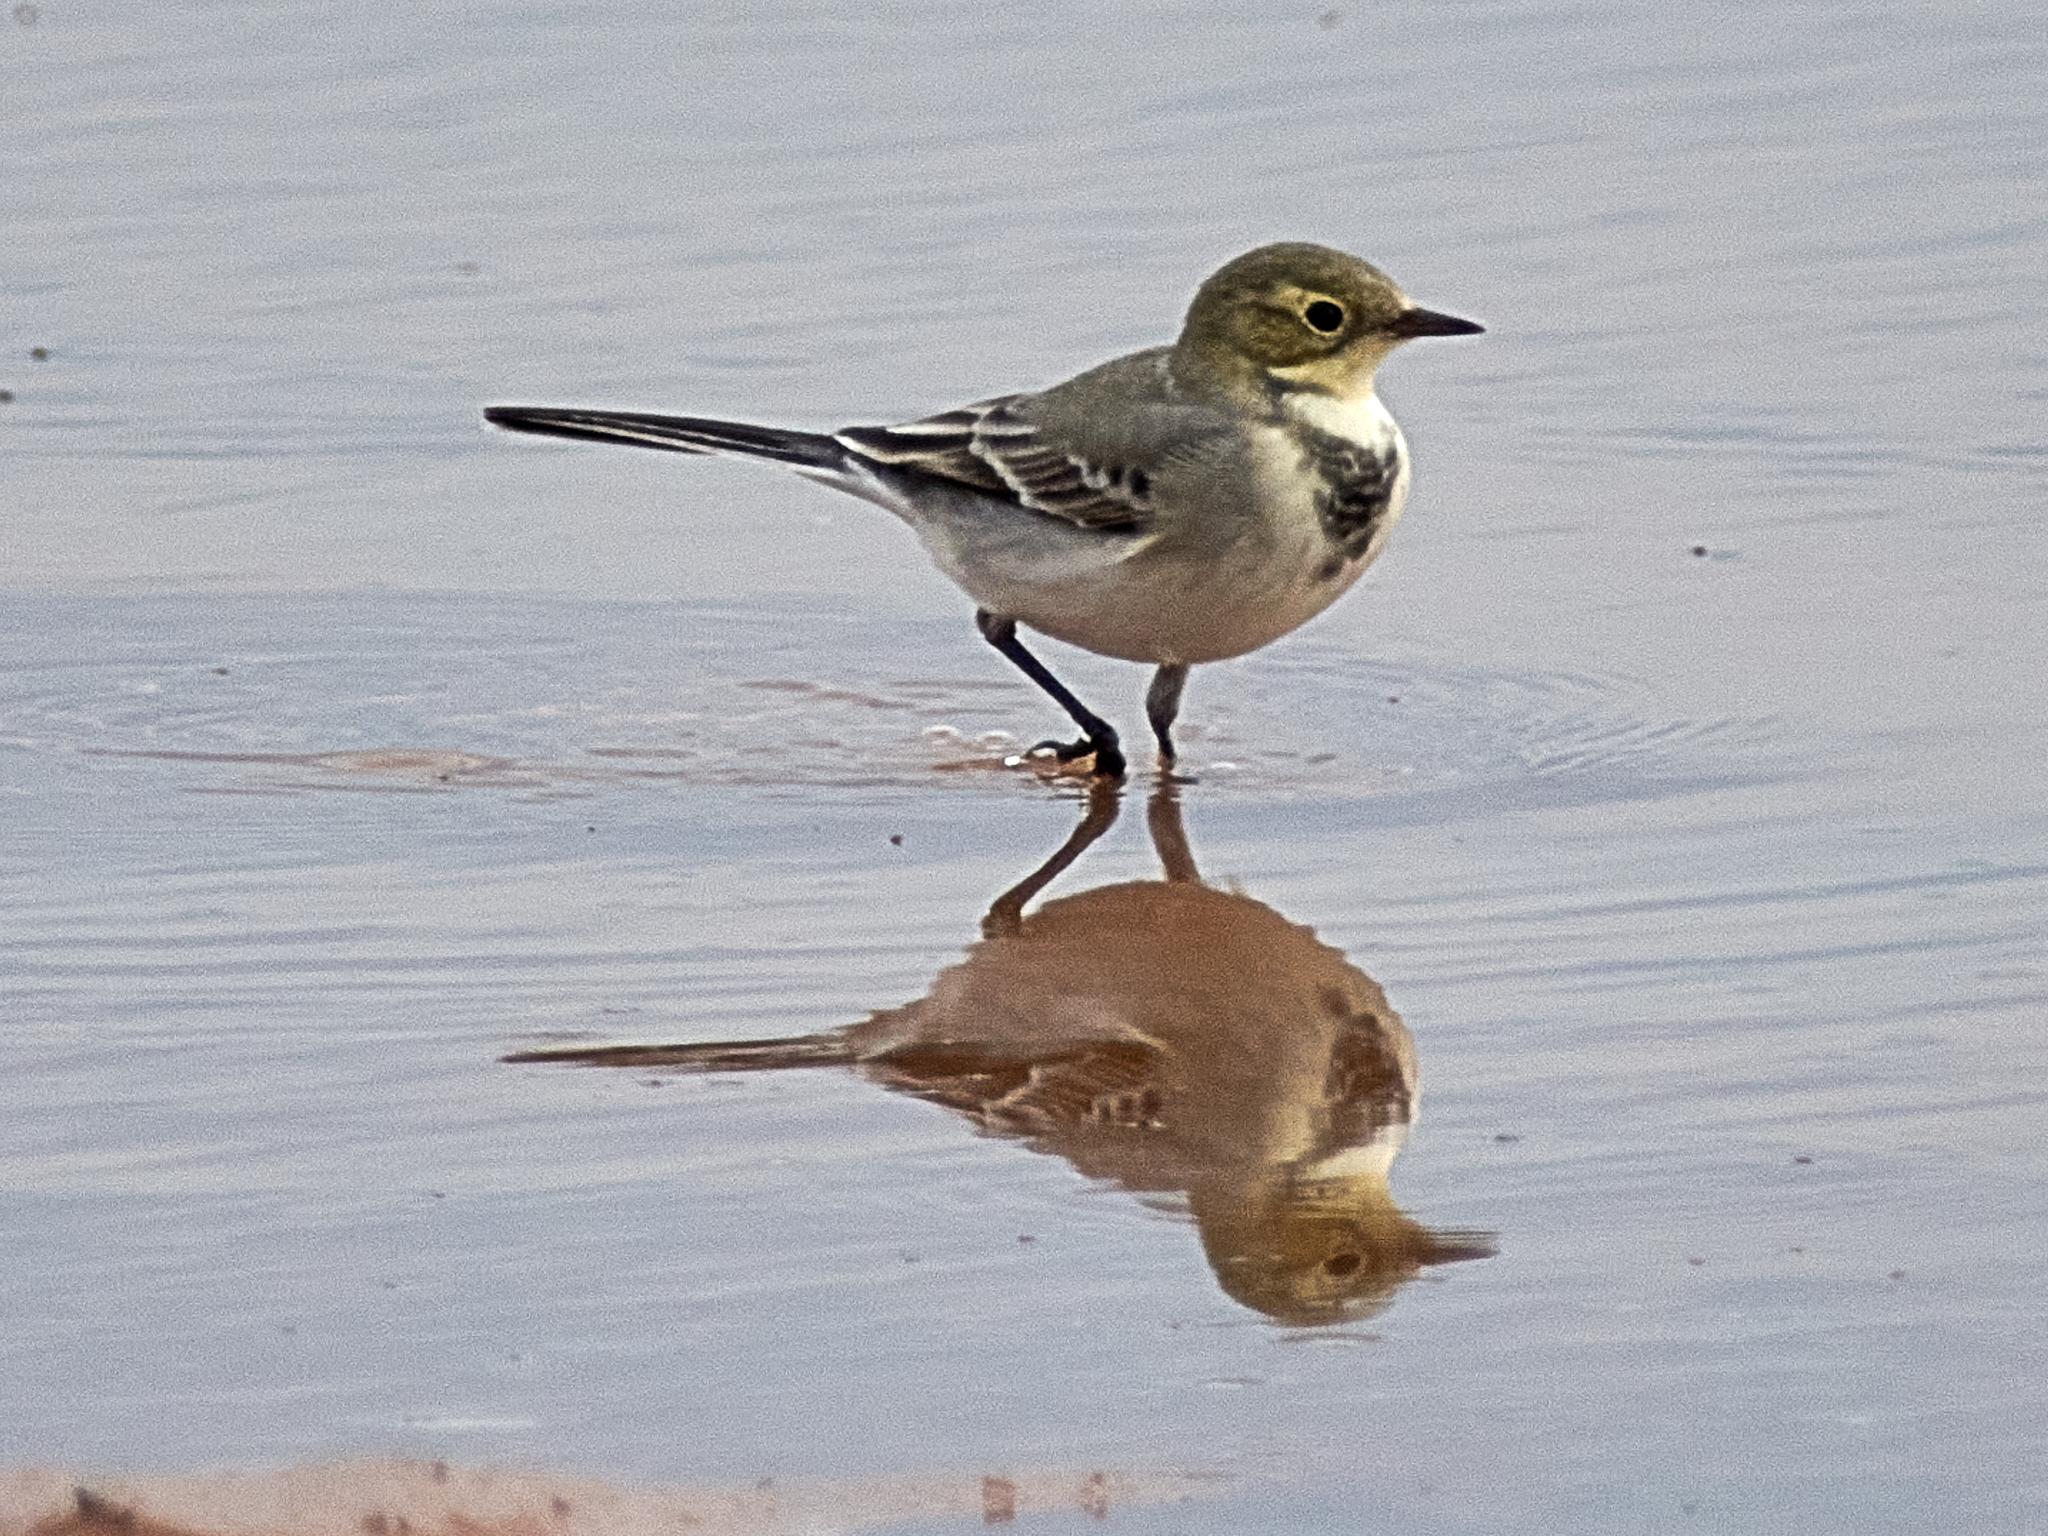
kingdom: Animalia
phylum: Chordata
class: Aves
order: Passeriformes
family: Motacillidae
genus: Motacilla
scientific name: Motacilla alba
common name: White wagtail
